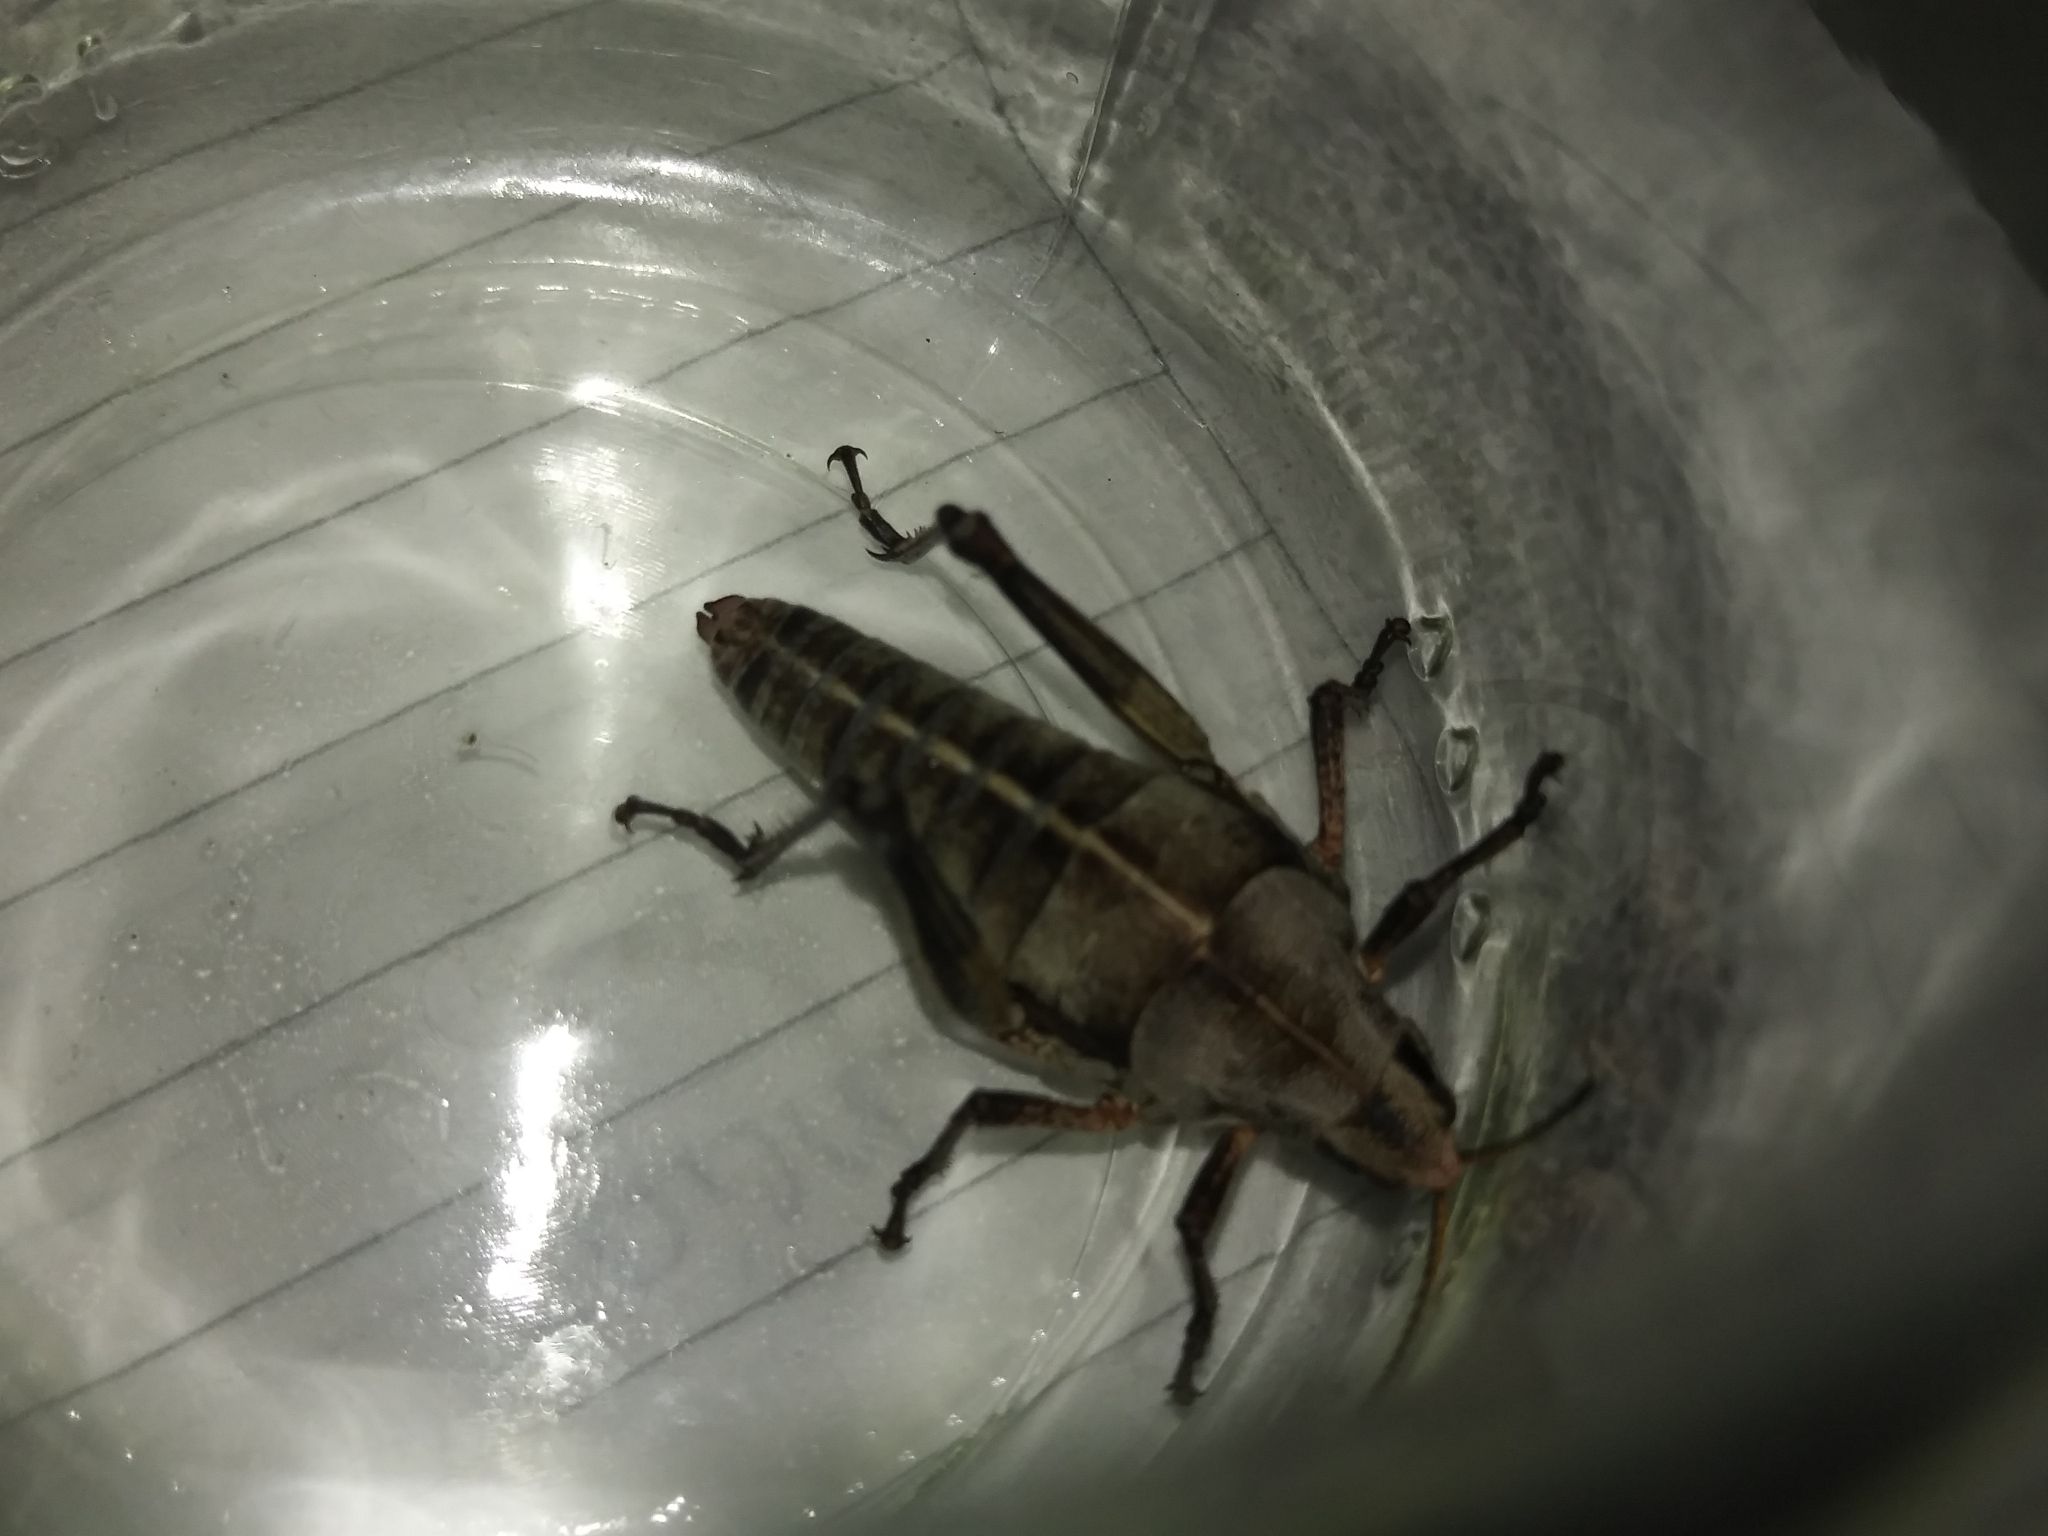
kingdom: Animalia
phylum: Arthropoda
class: Insecta
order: Orthoptera
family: Pyrgomorphidae
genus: Sphenarium
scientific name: Sphenarium purpurascens
